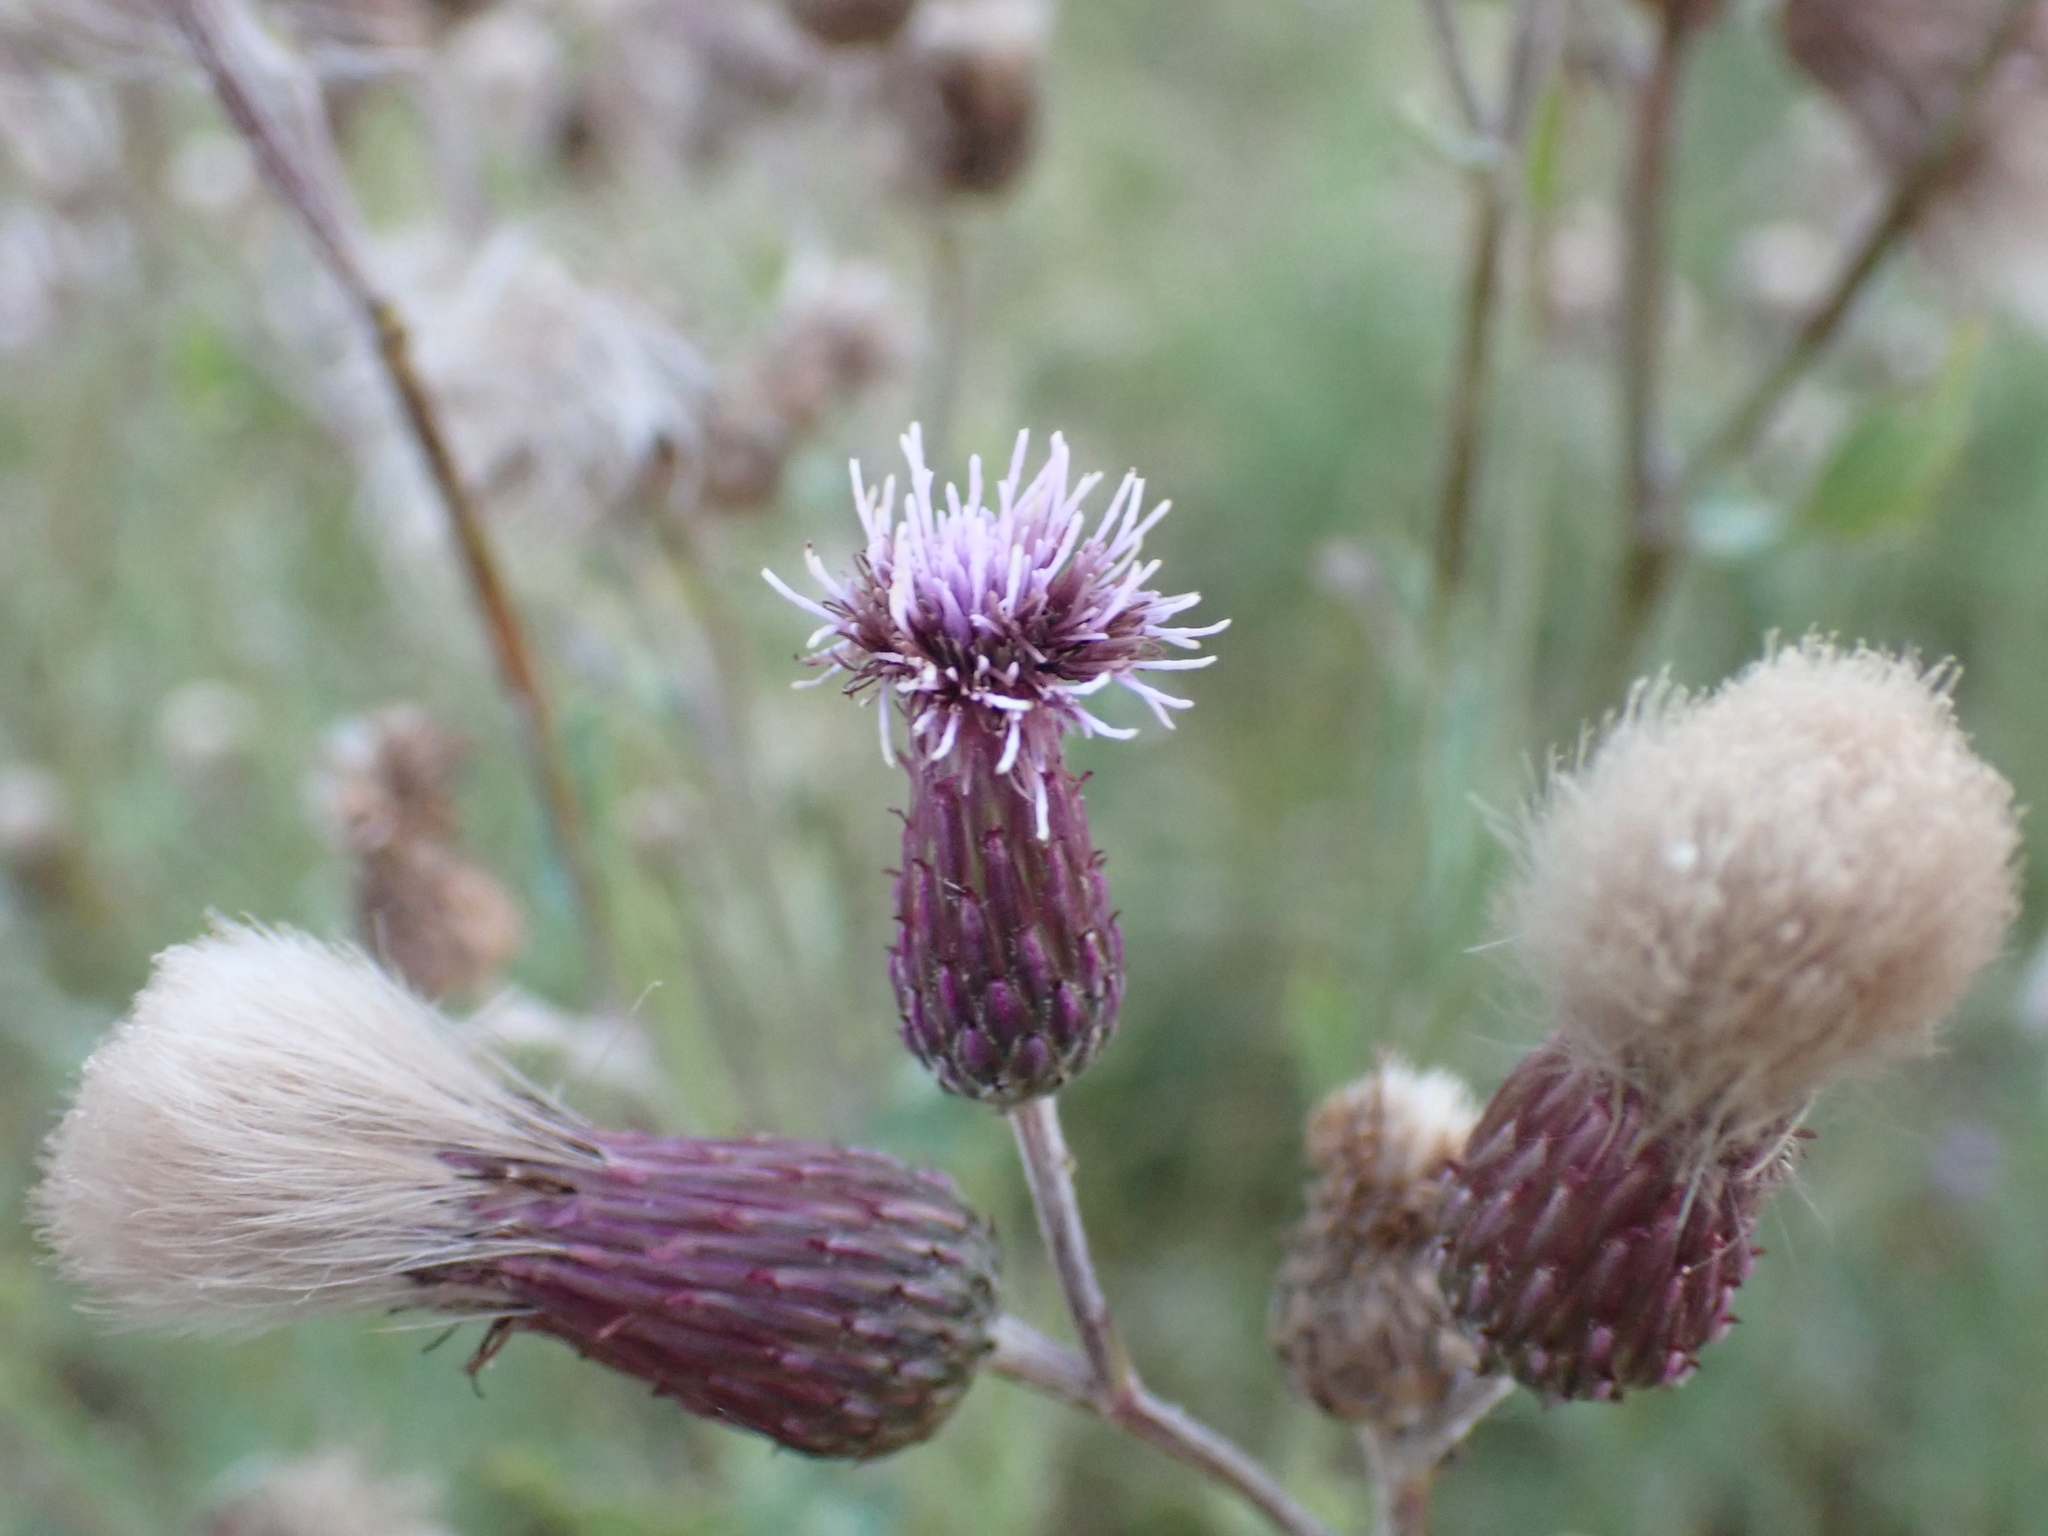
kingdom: Plantae
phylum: Tracheophyta
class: Magnoliopsida
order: Asterales
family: Asteraceae
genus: Cirsium
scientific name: Cirsium arvense
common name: Creeping thistle
